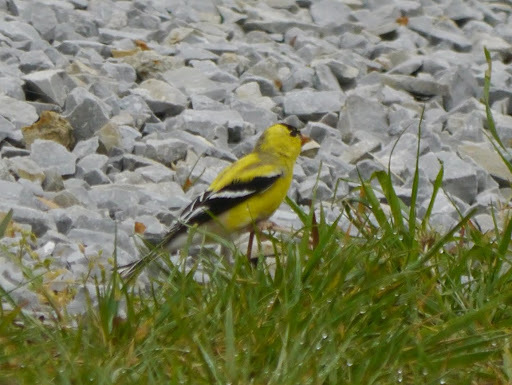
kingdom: Animalia
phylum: Chordata
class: Aves
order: Passeriformes
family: Fringillidae
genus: Spinus
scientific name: Spinus tristis
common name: American goldfinch
